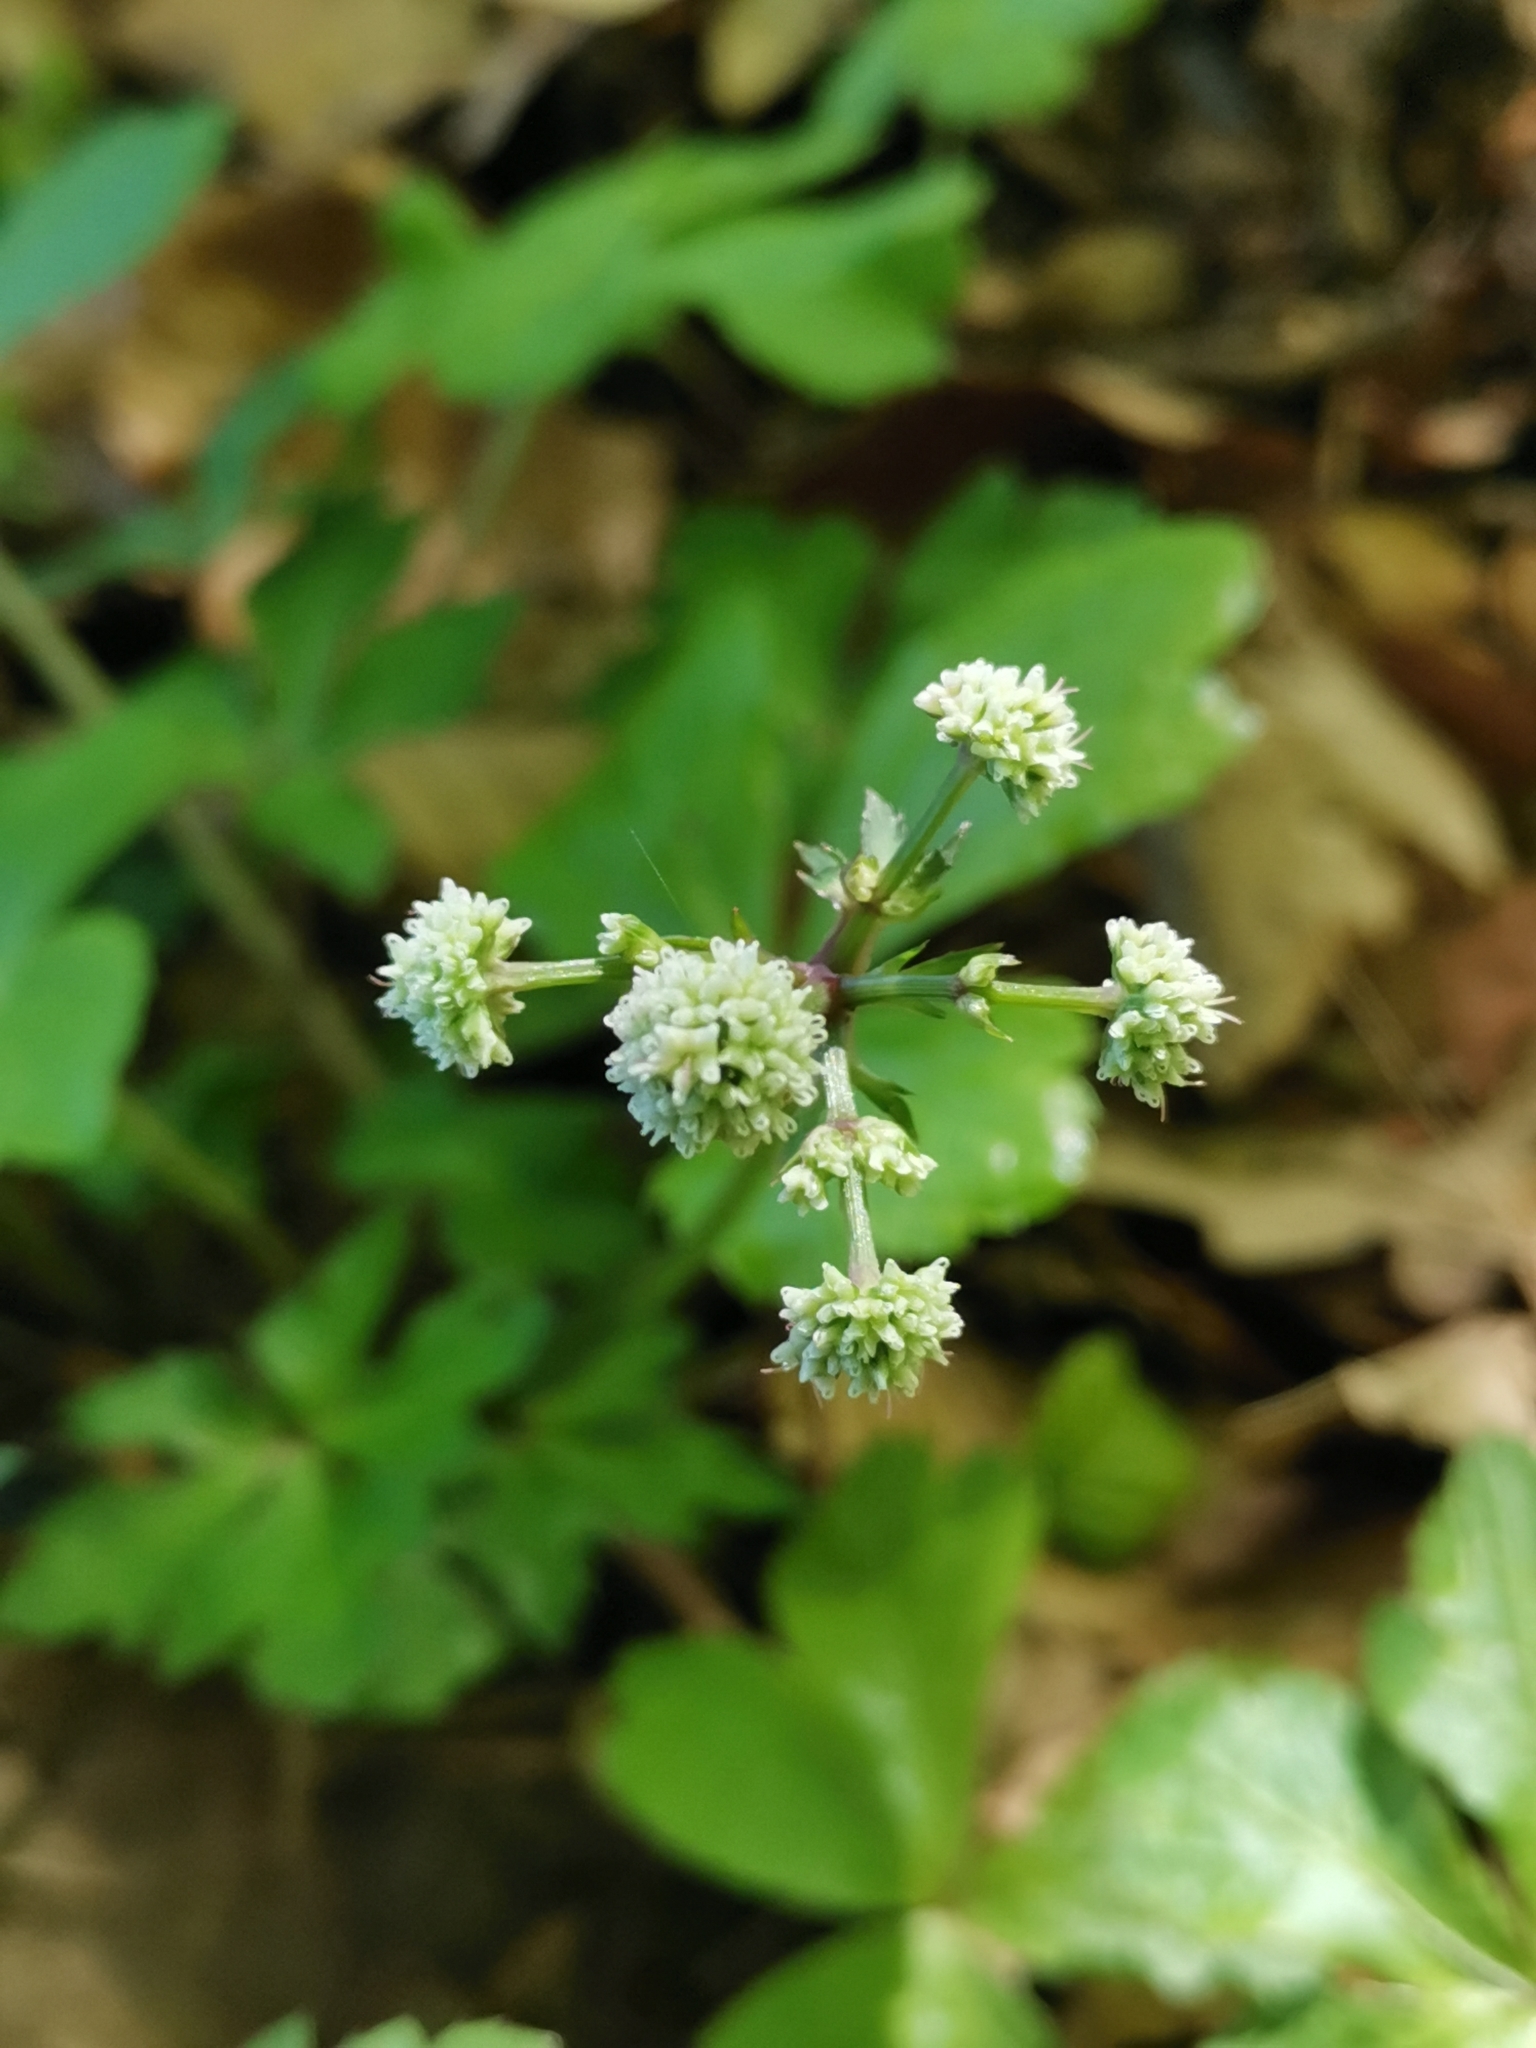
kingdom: Plantae
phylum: Tracheophyta
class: Magnoliopsida
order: Apiales
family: Apiaceae
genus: Sanicula
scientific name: Sanicula europaea
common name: Sanicle
